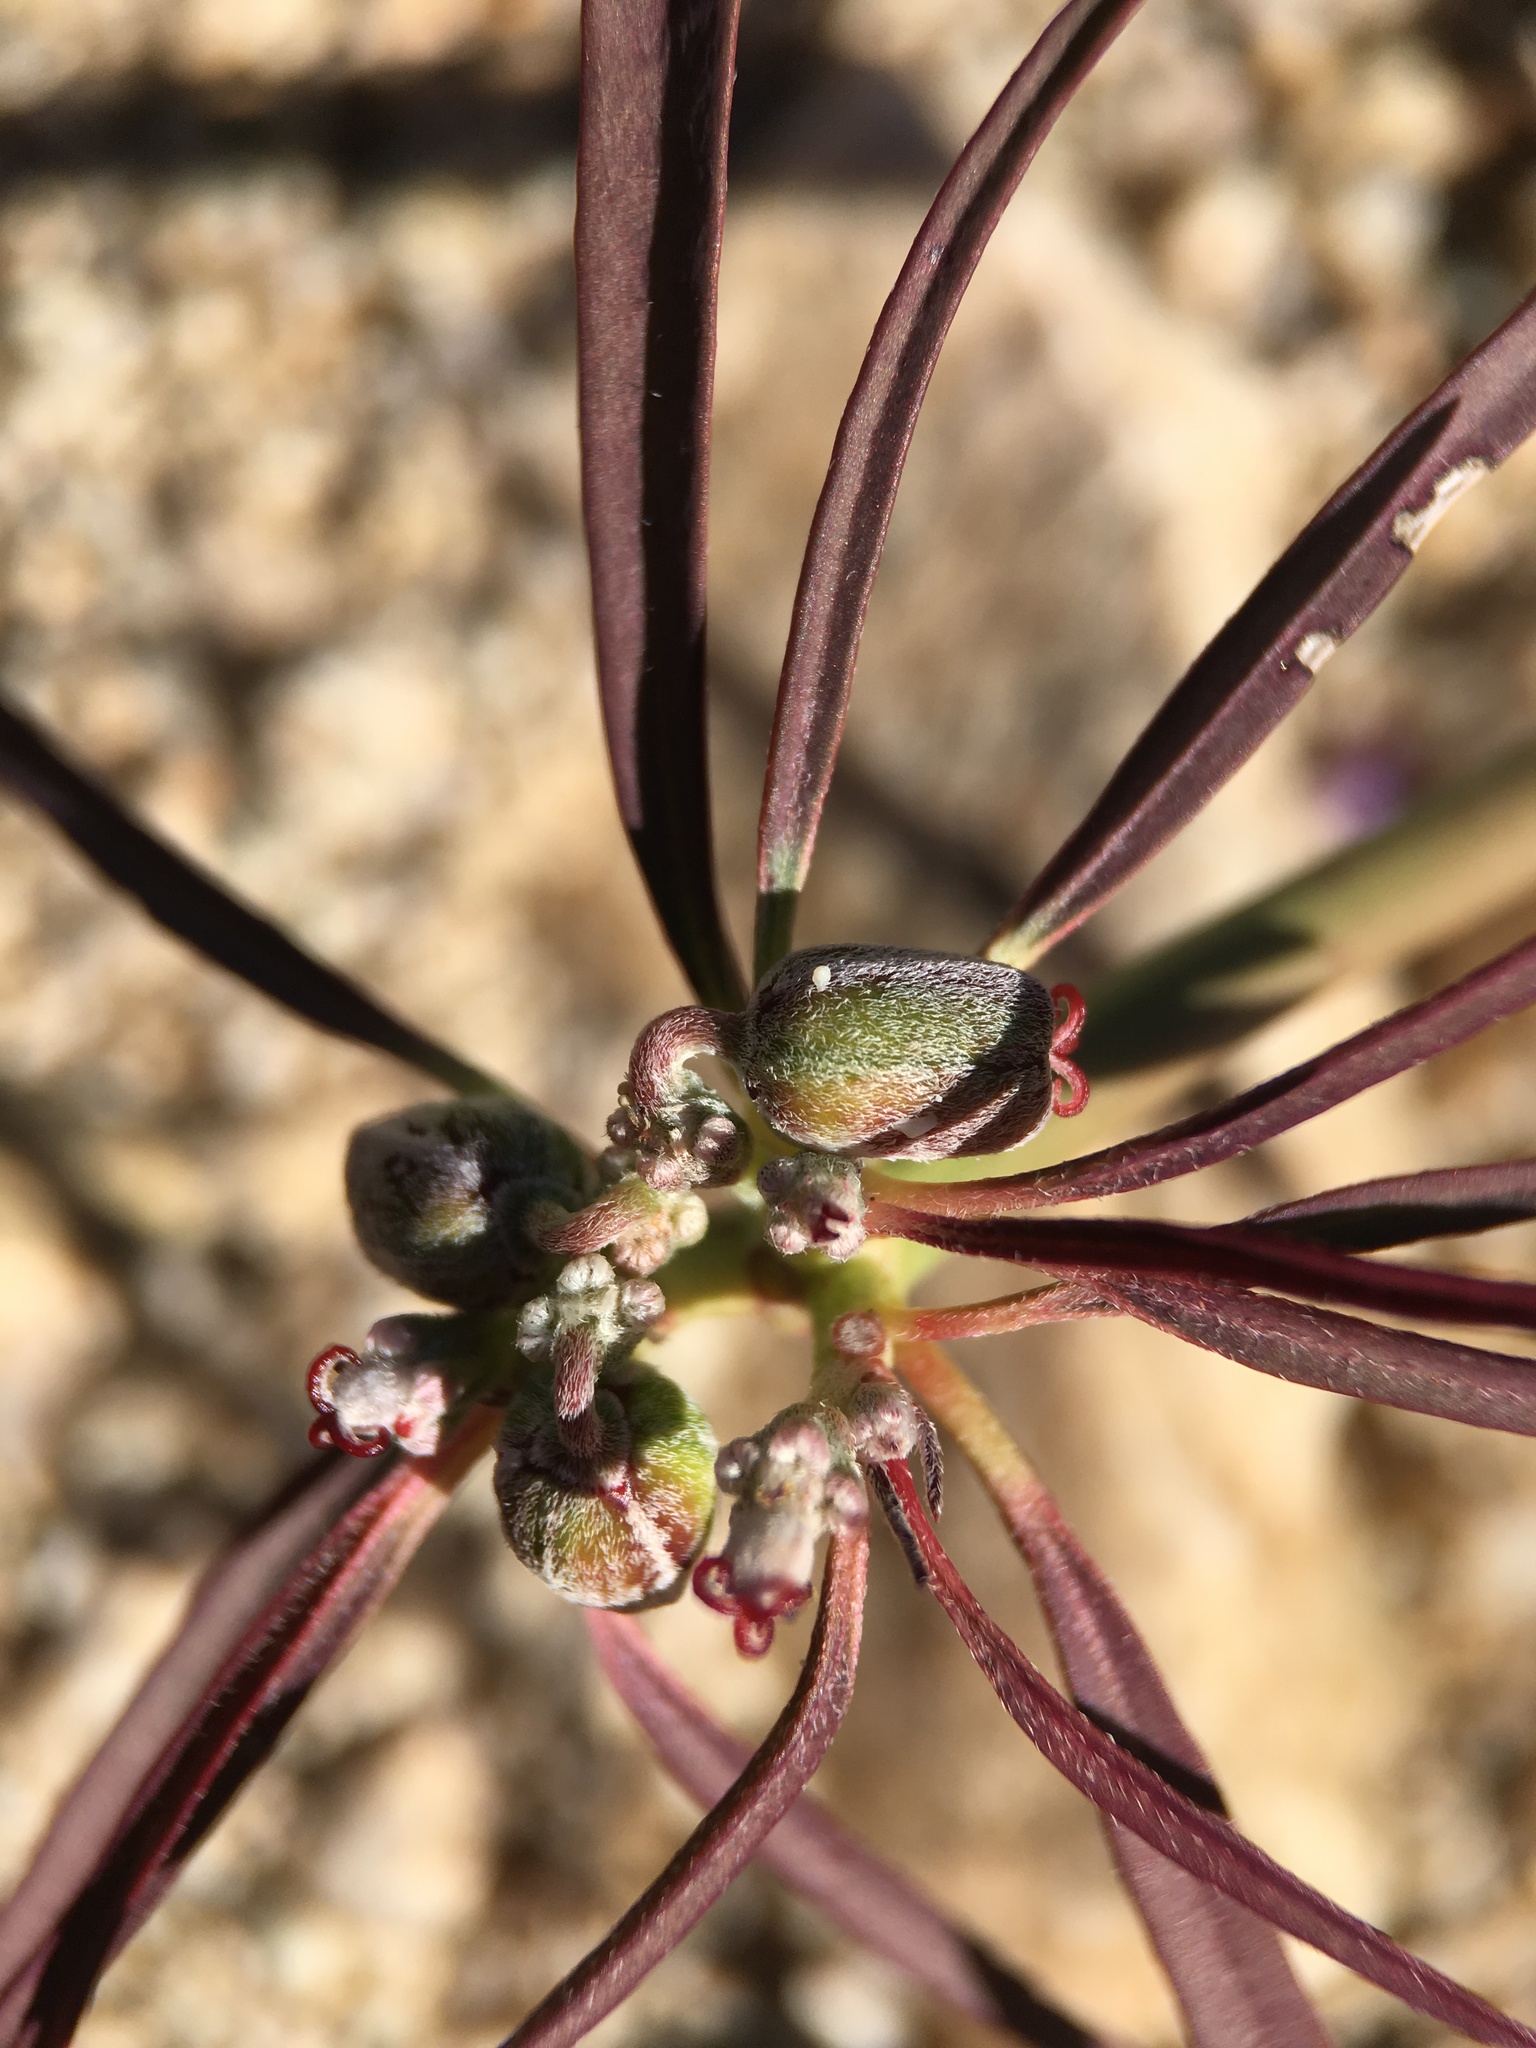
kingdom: Plantae
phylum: Tracheophyta
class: Magnoliopsida
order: Malpighiales
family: Euphorbiaceae
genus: Euphorbia
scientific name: Euphorbia eriantha
